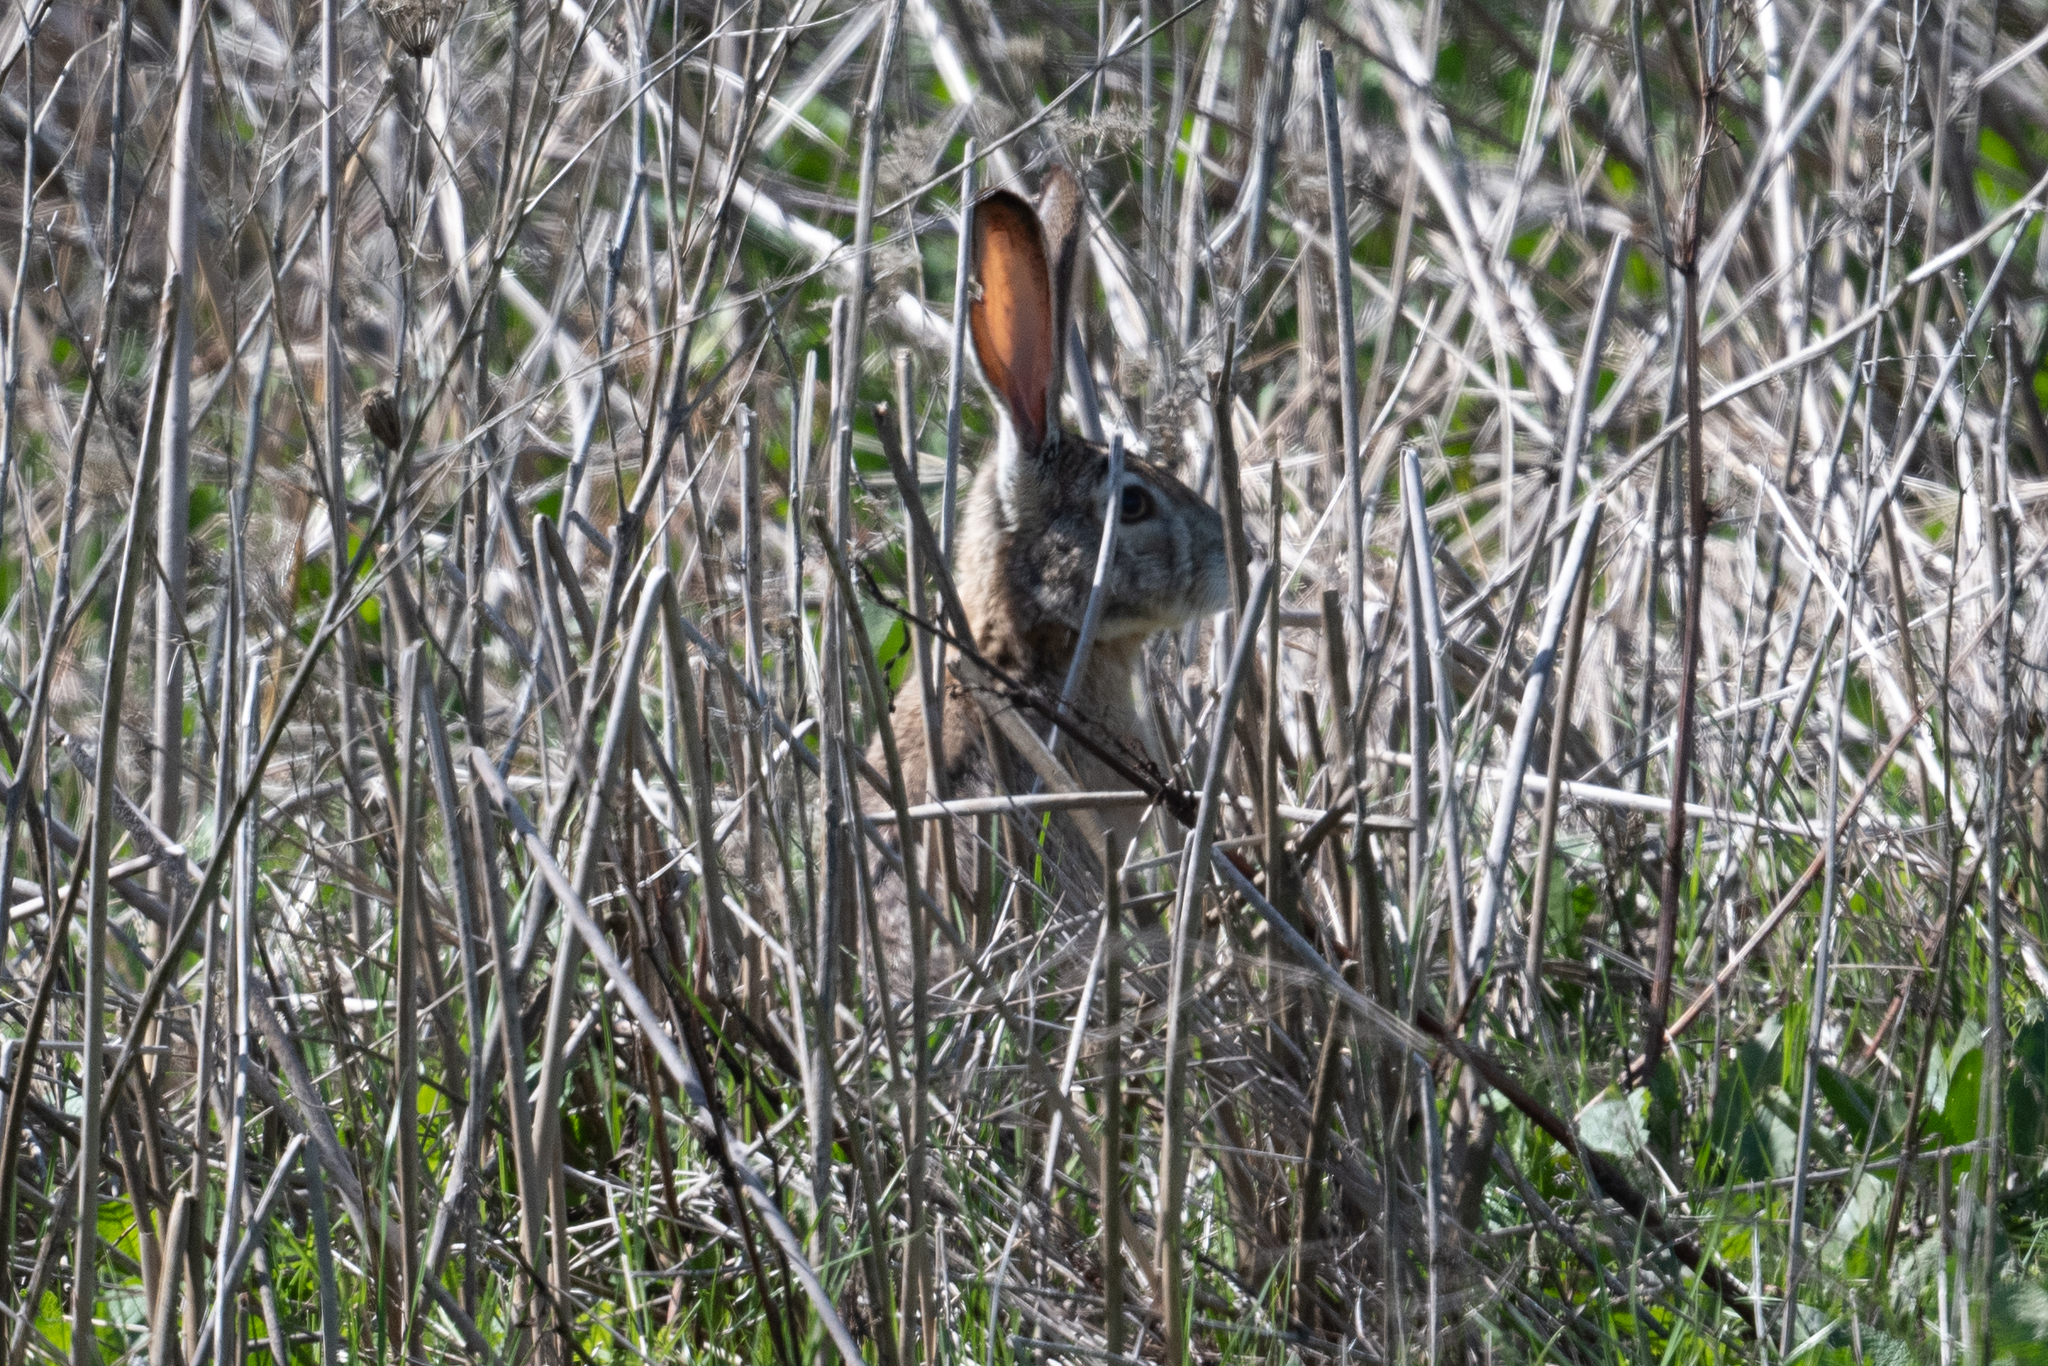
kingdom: Animalia
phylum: Chordata
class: Mammalia
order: Lagomorpha
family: Leporidae
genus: Lepus
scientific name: Lepus californicus
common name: Black-tailed jackrabbit
